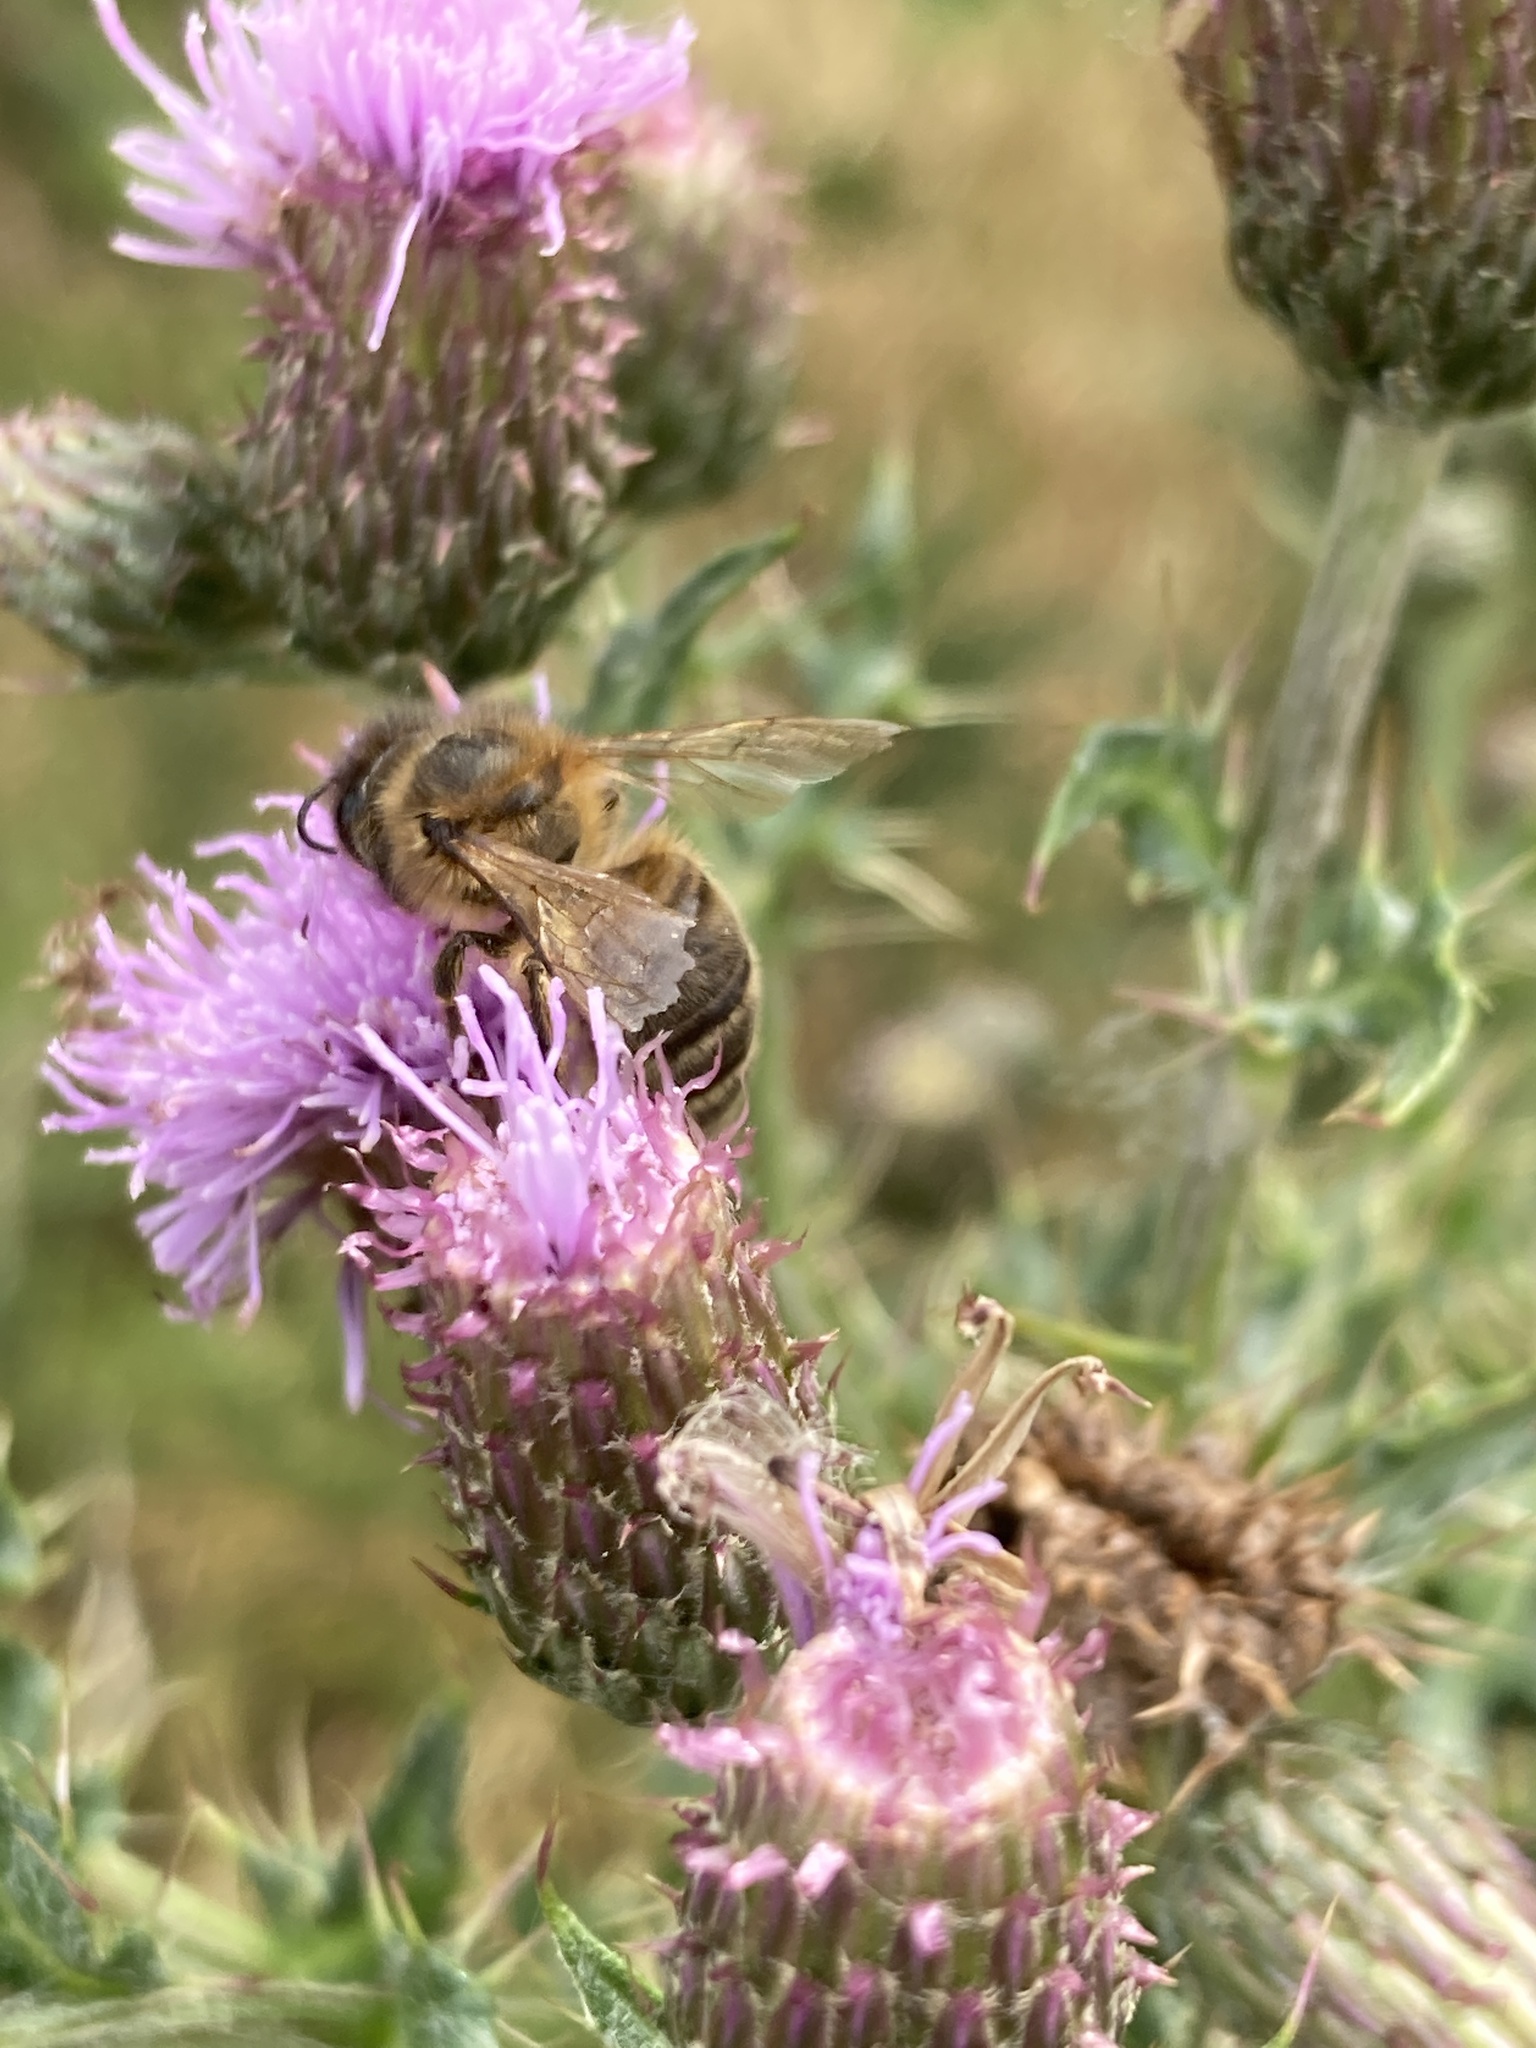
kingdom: Animalia
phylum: Arthropoda
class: Insecta
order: Hymenoptera
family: Apidae
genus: Apis
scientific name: Apis mellifera
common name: Honey bee
